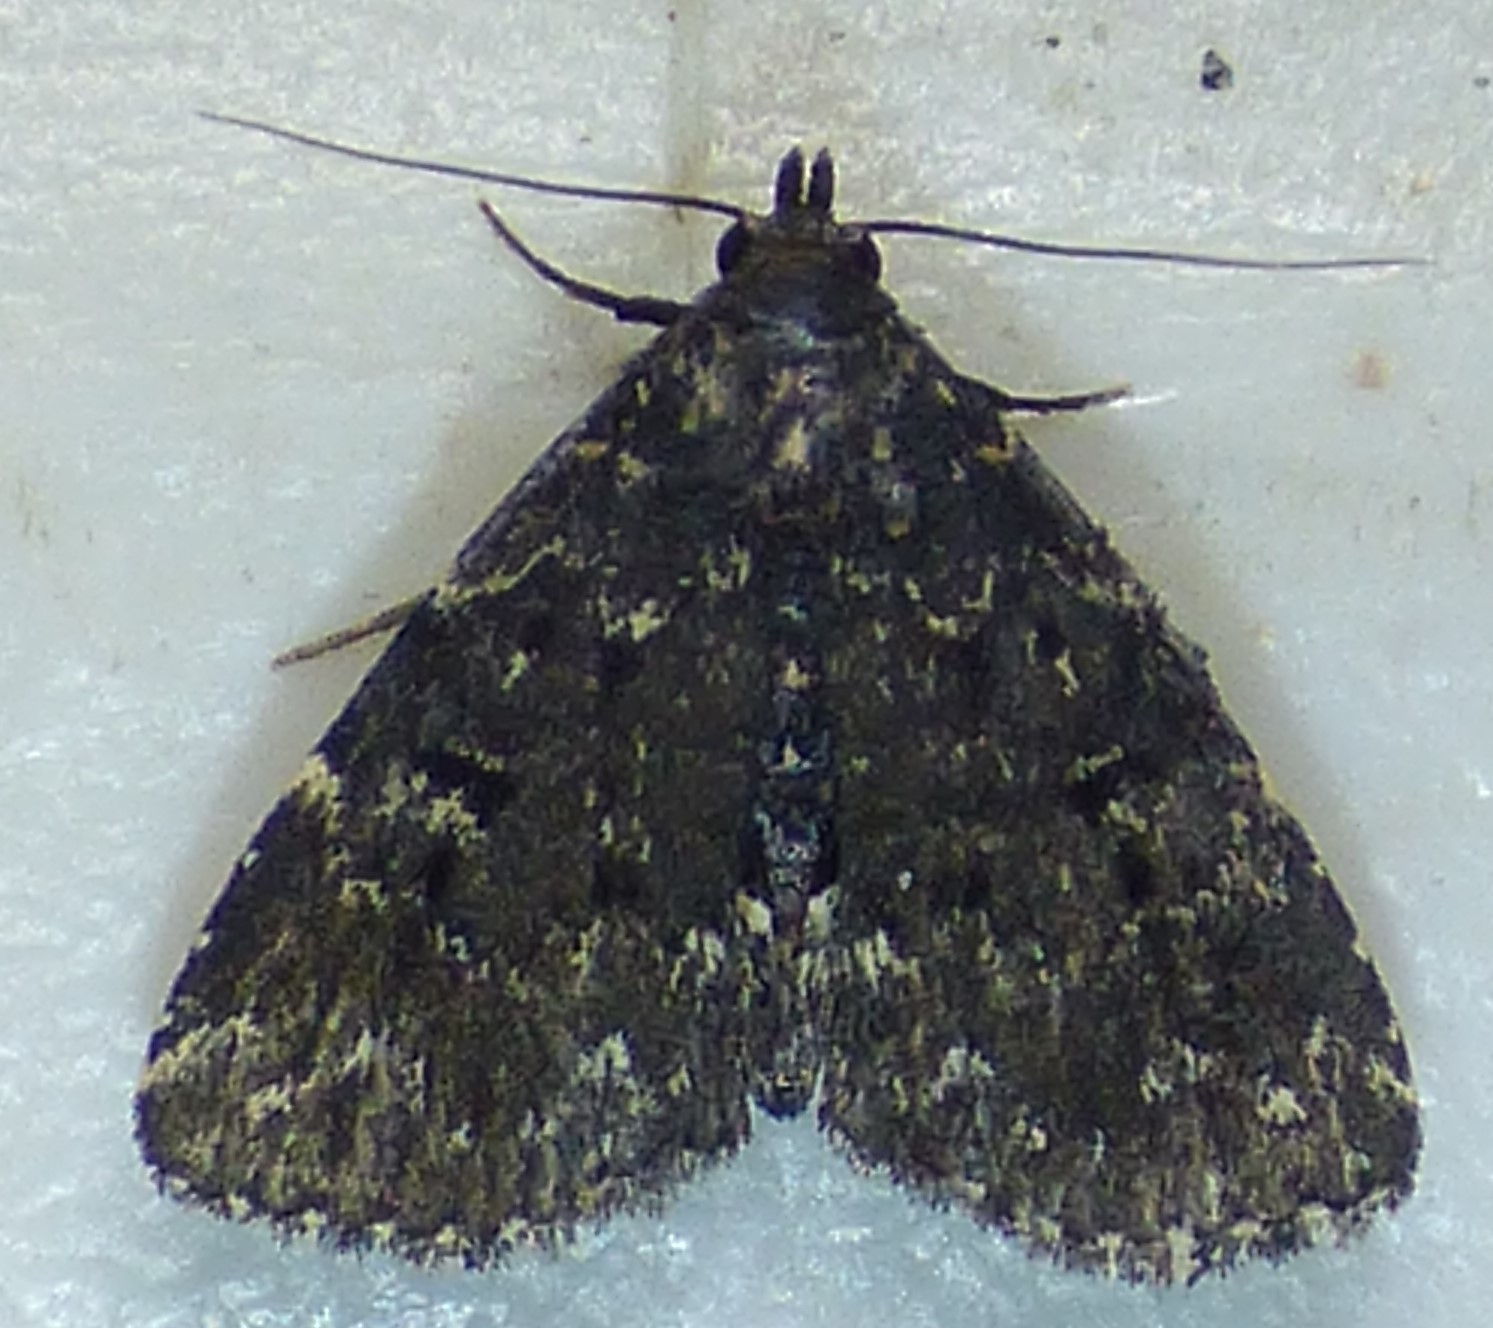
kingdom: Animalia
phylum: Arthropoda
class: Insecta
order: Lepidoptera
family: Erebidae
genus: Metalectra
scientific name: Metalectra tantillus
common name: Black fungus moth
